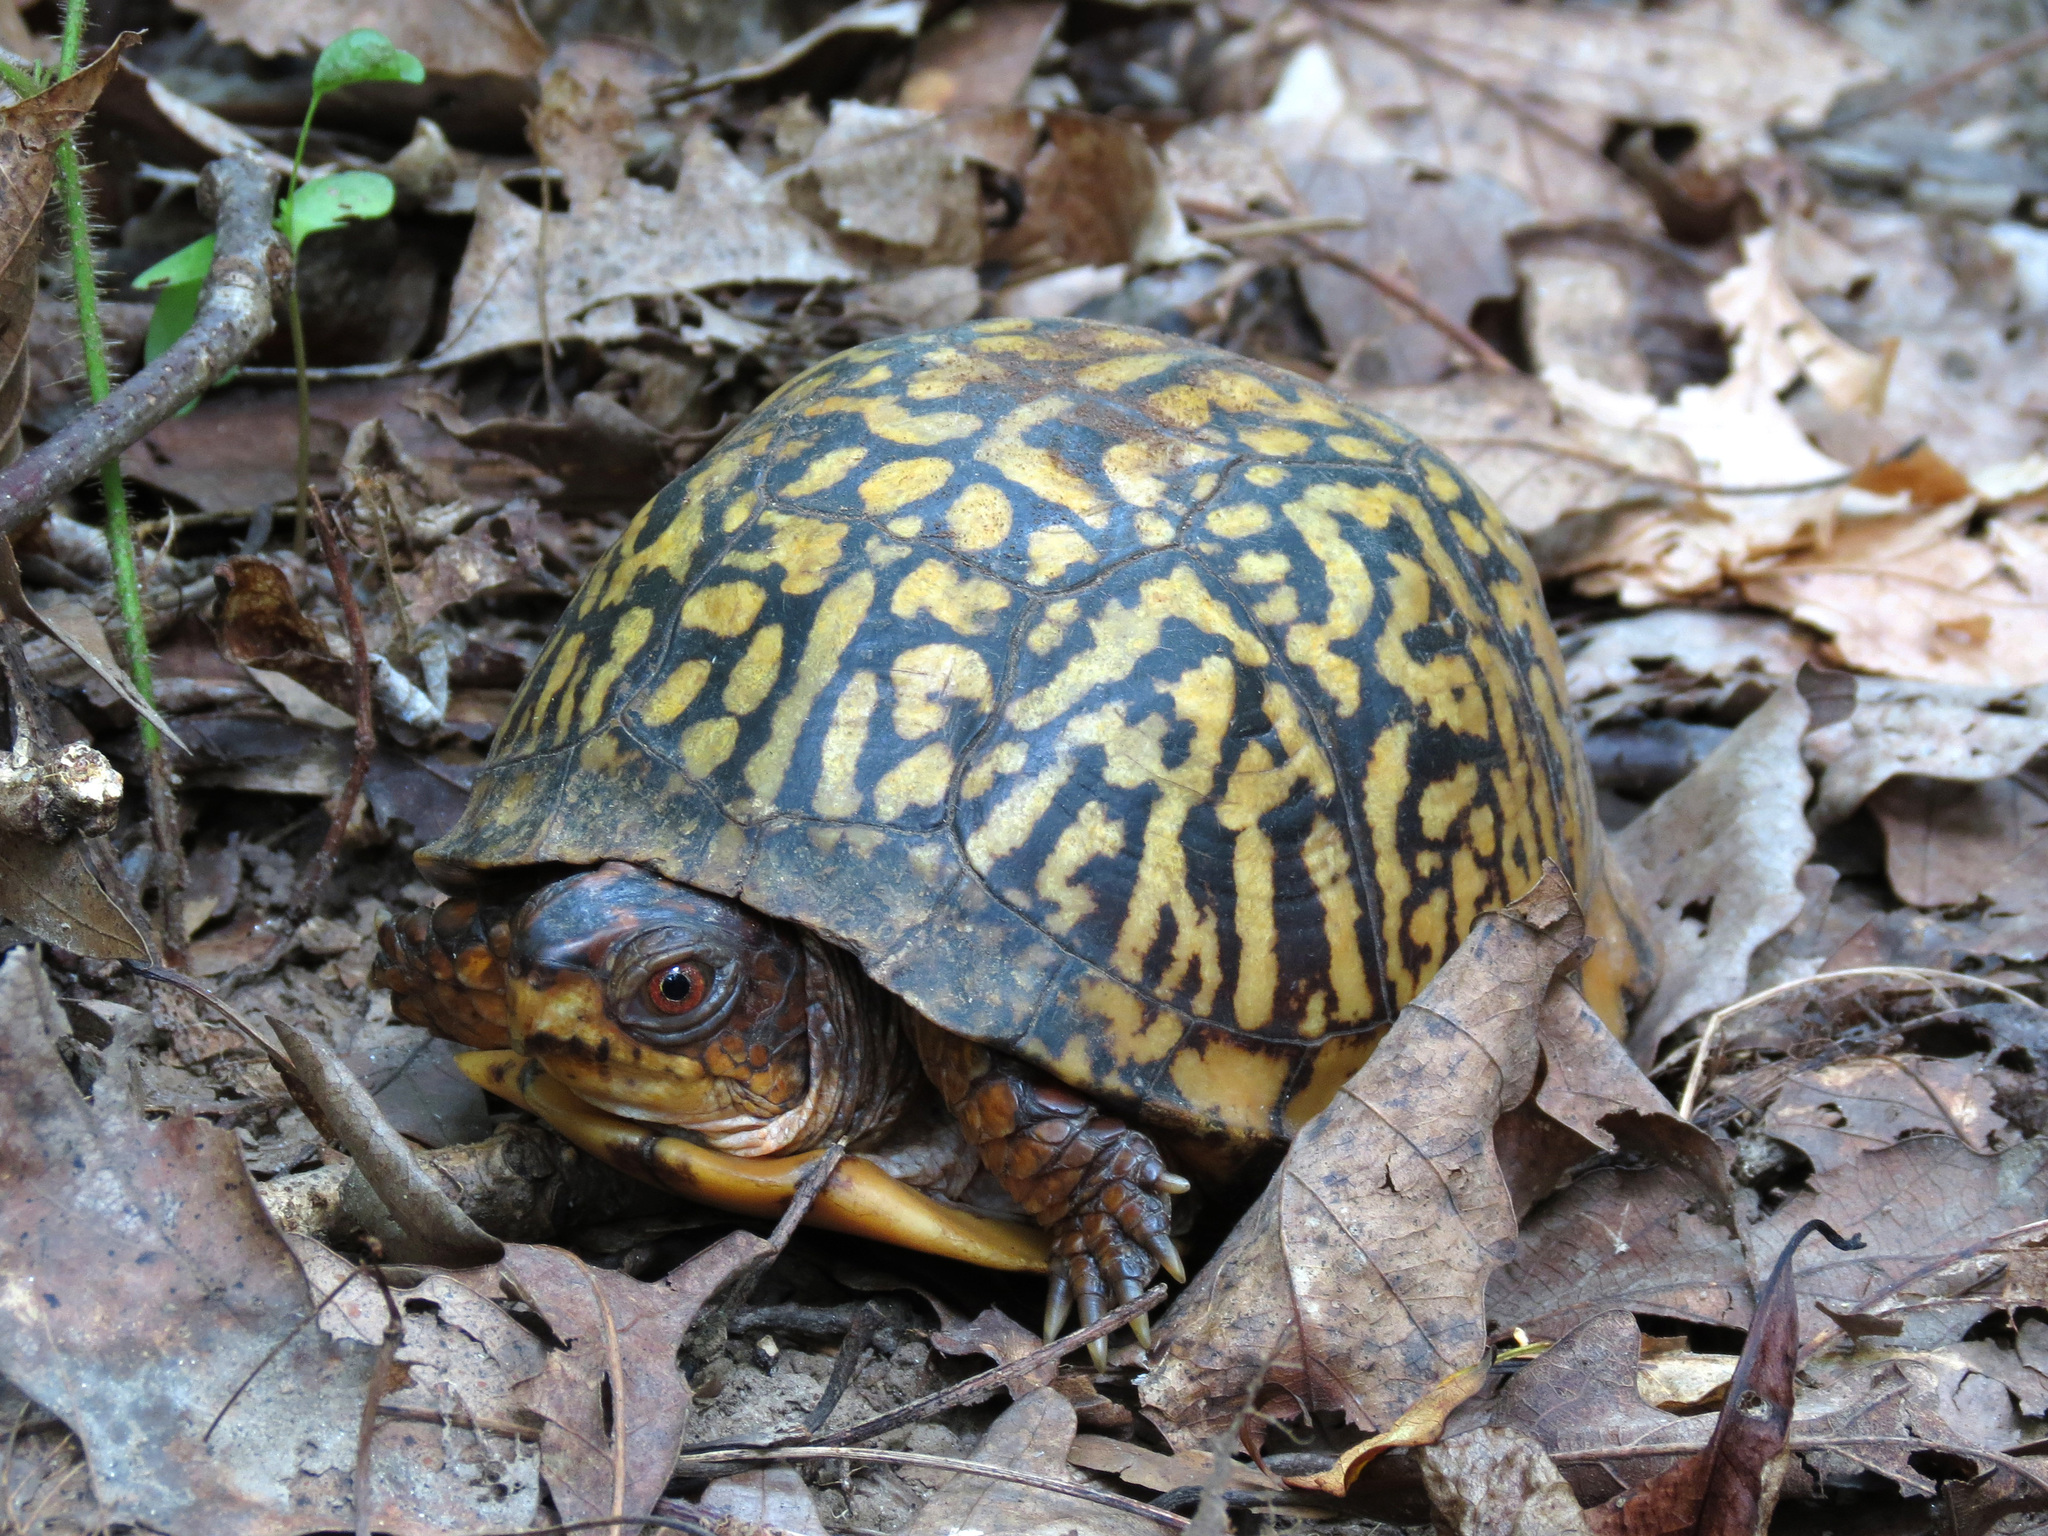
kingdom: Animalia
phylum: Chordata
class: Testudines
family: Emydidae
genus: Terrapene
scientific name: Terrapene carolina
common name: Common box turtle
